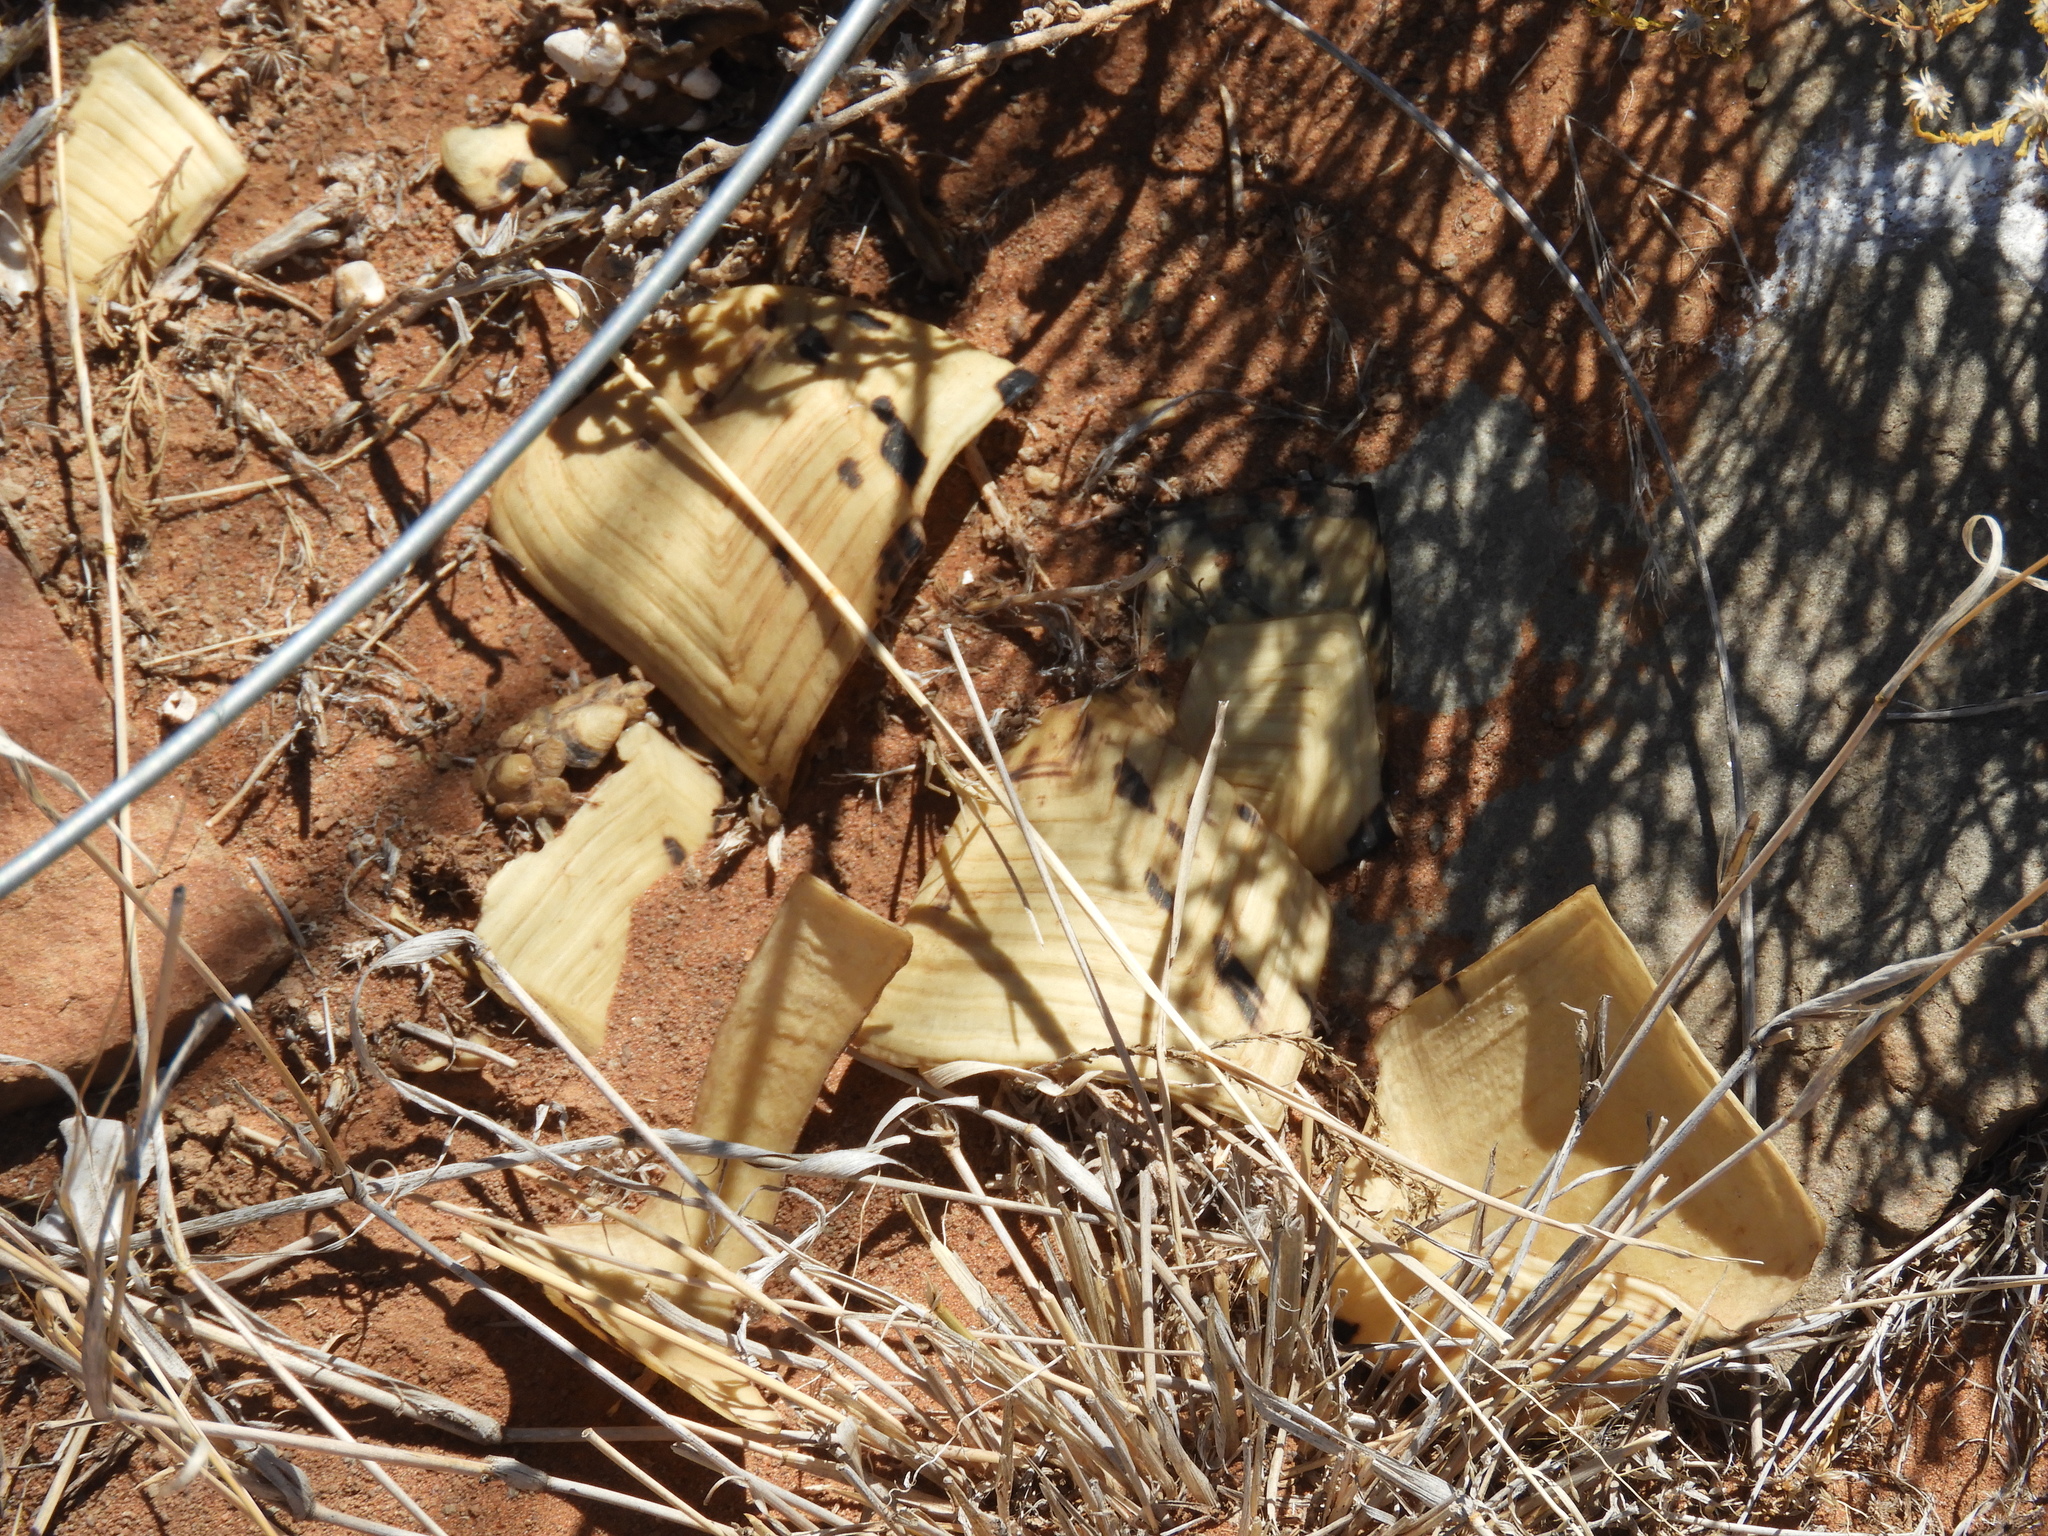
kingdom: Animalia
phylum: Chordata
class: Testudines
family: Testudinidae
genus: Stigmochelys
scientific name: Stigmochelys pardalis
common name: Leopard tortoise
